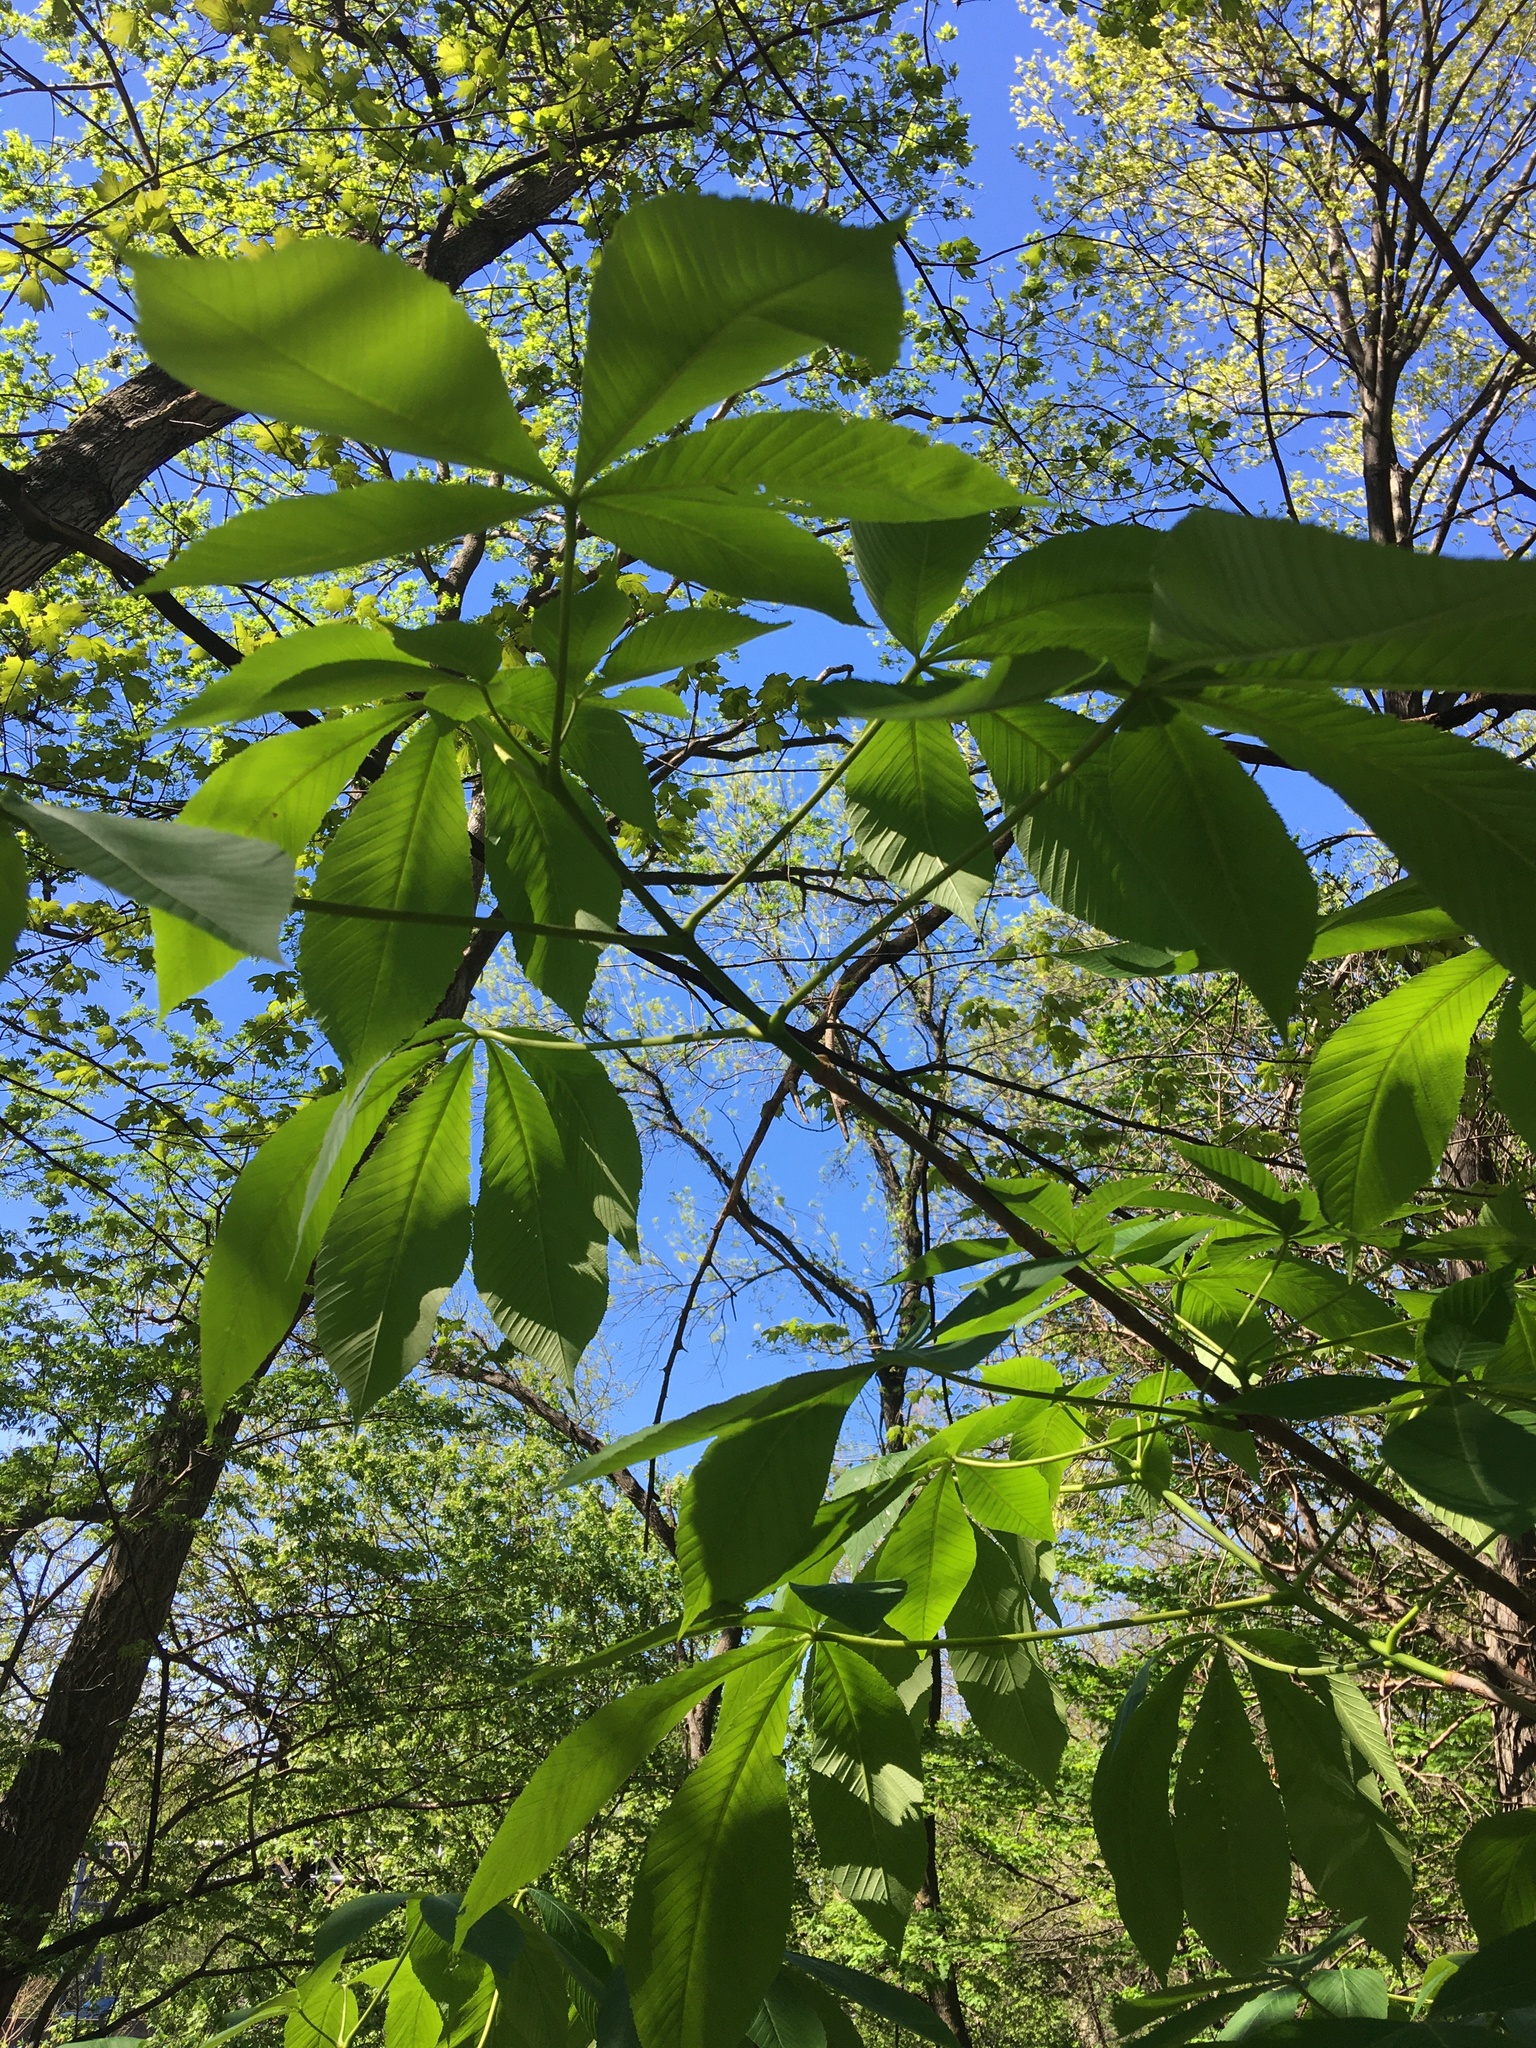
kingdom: Plantae
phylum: Tracheophyta
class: Magnoliopsida
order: Sapindales
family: Sapindaceae
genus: Aesculus
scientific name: Aesculus flava
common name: Yellow buckeye
